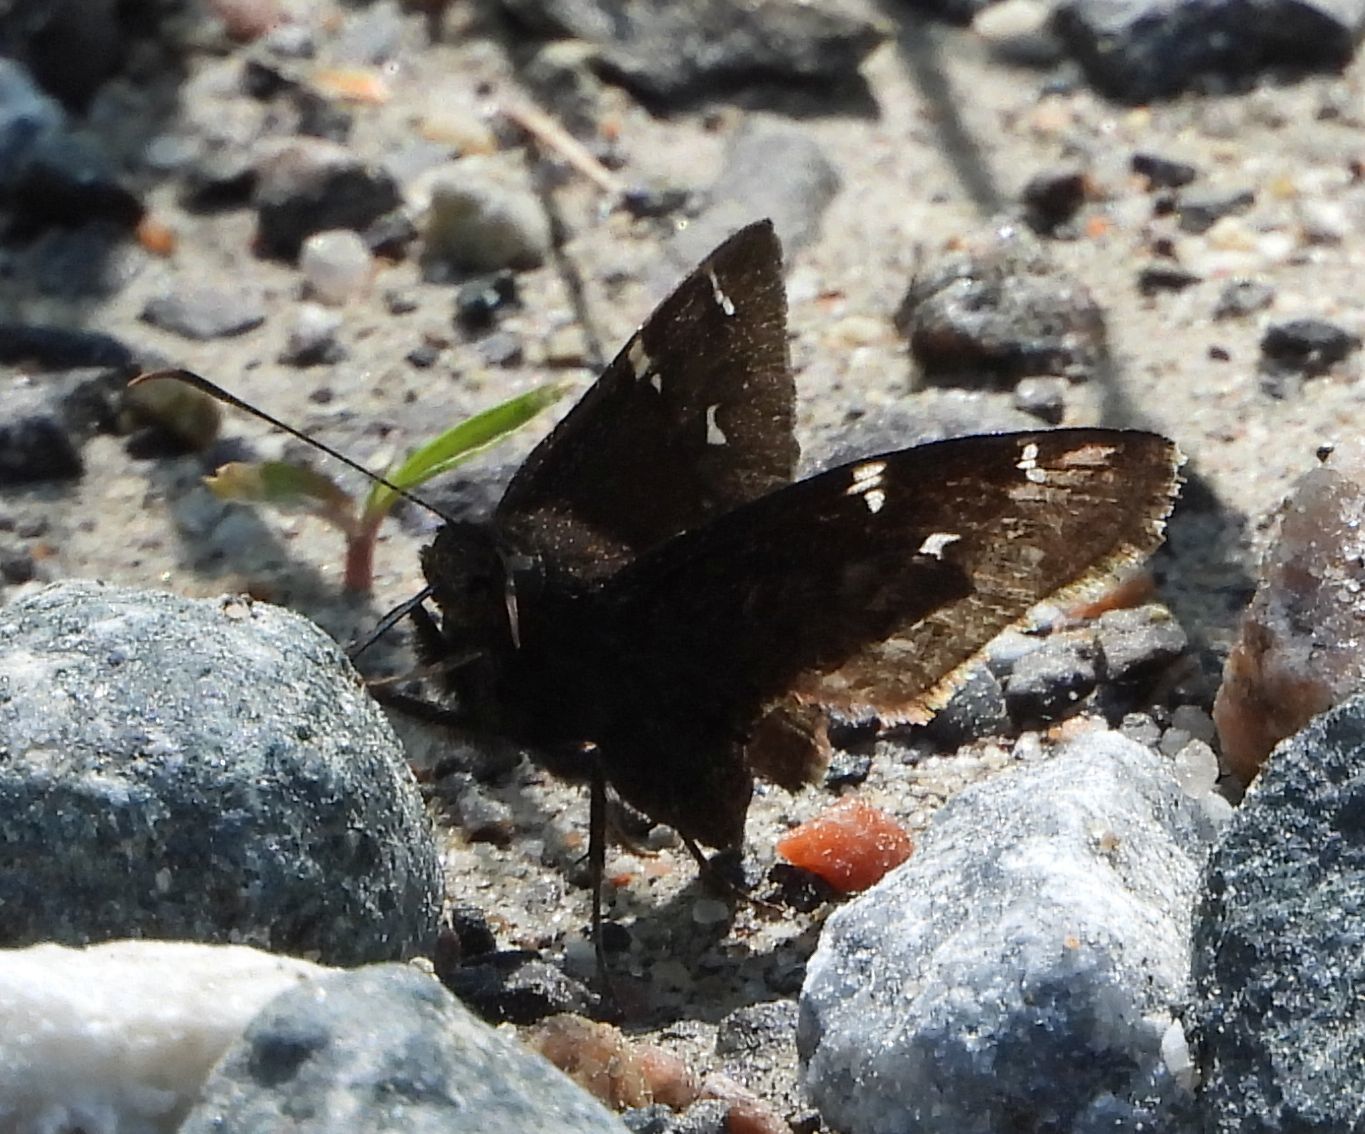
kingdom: Animalia
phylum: Arthropoda
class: Insecta
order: Lepidoptera
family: Hesperiidae
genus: Thorybes
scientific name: Thorybes pylades
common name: Northern cloudywing
